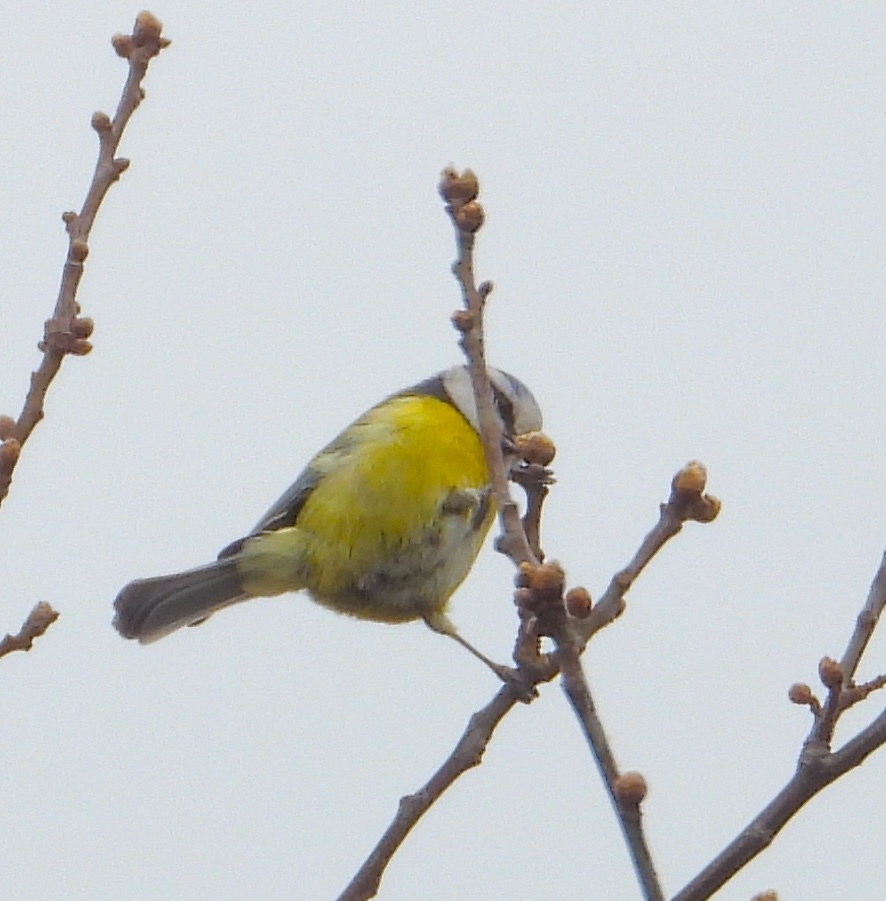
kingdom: Animalia
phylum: Chordata
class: Aves
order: Passeriformes
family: Paridae
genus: Cyanistes
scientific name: Cyanistes caeruleus
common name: Eurasian blue tit
